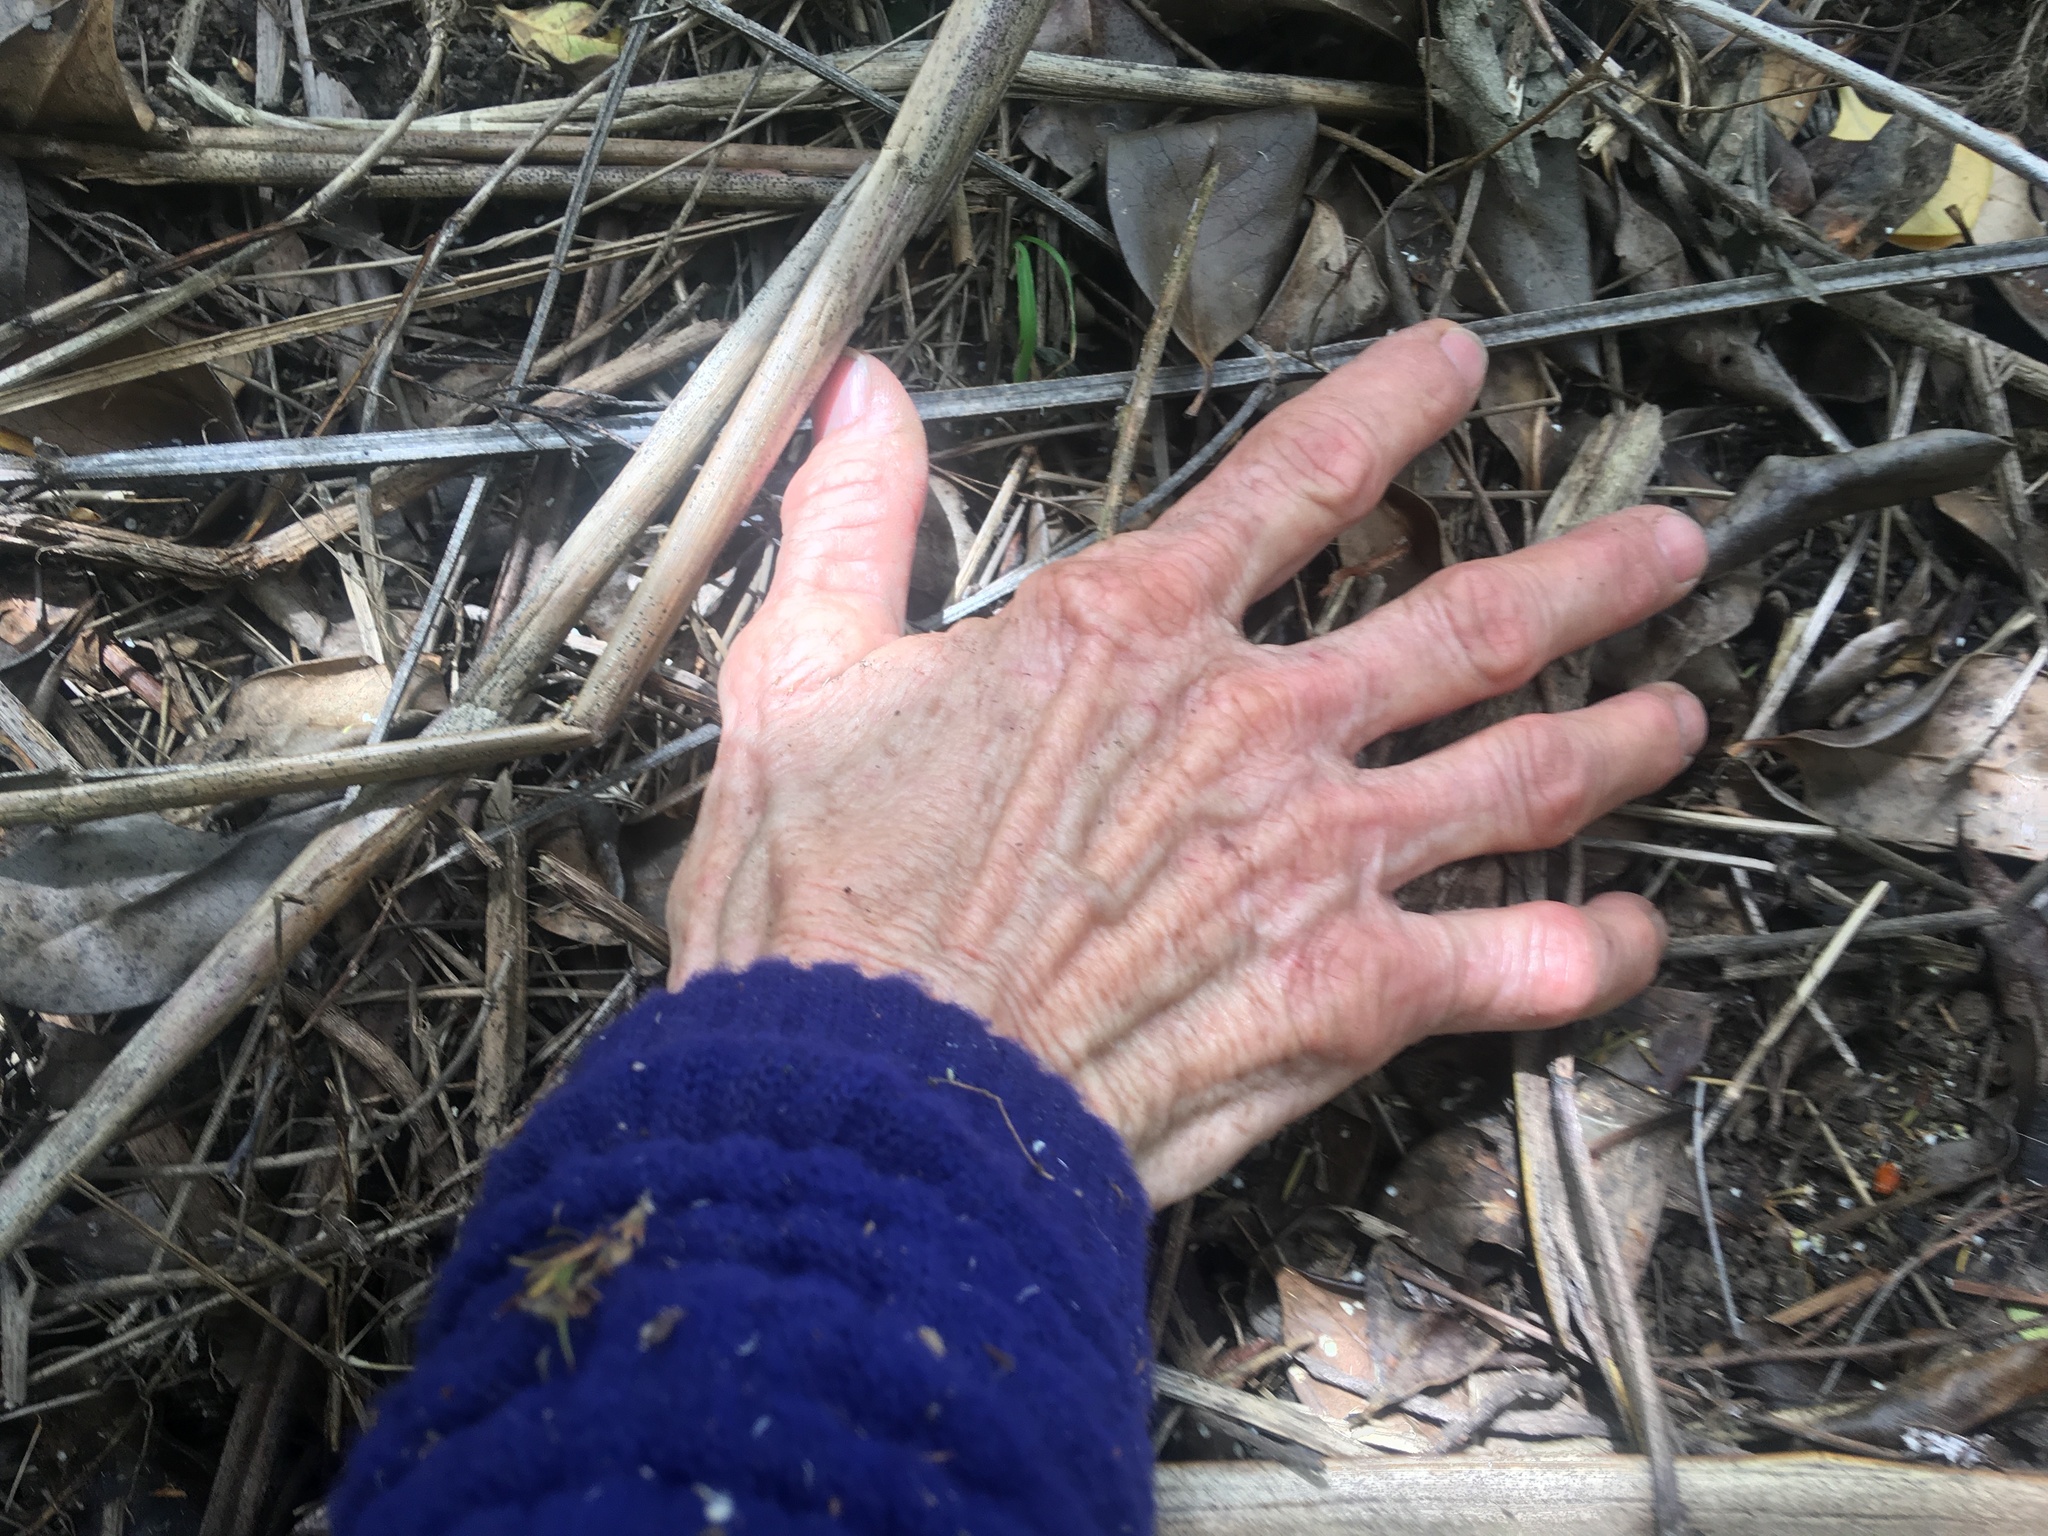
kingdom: Plantae
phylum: Tracheophyta
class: Magnoliopsida
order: Gentianales
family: Rubiaceae
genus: Coprosma
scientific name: Coprosma robusta
